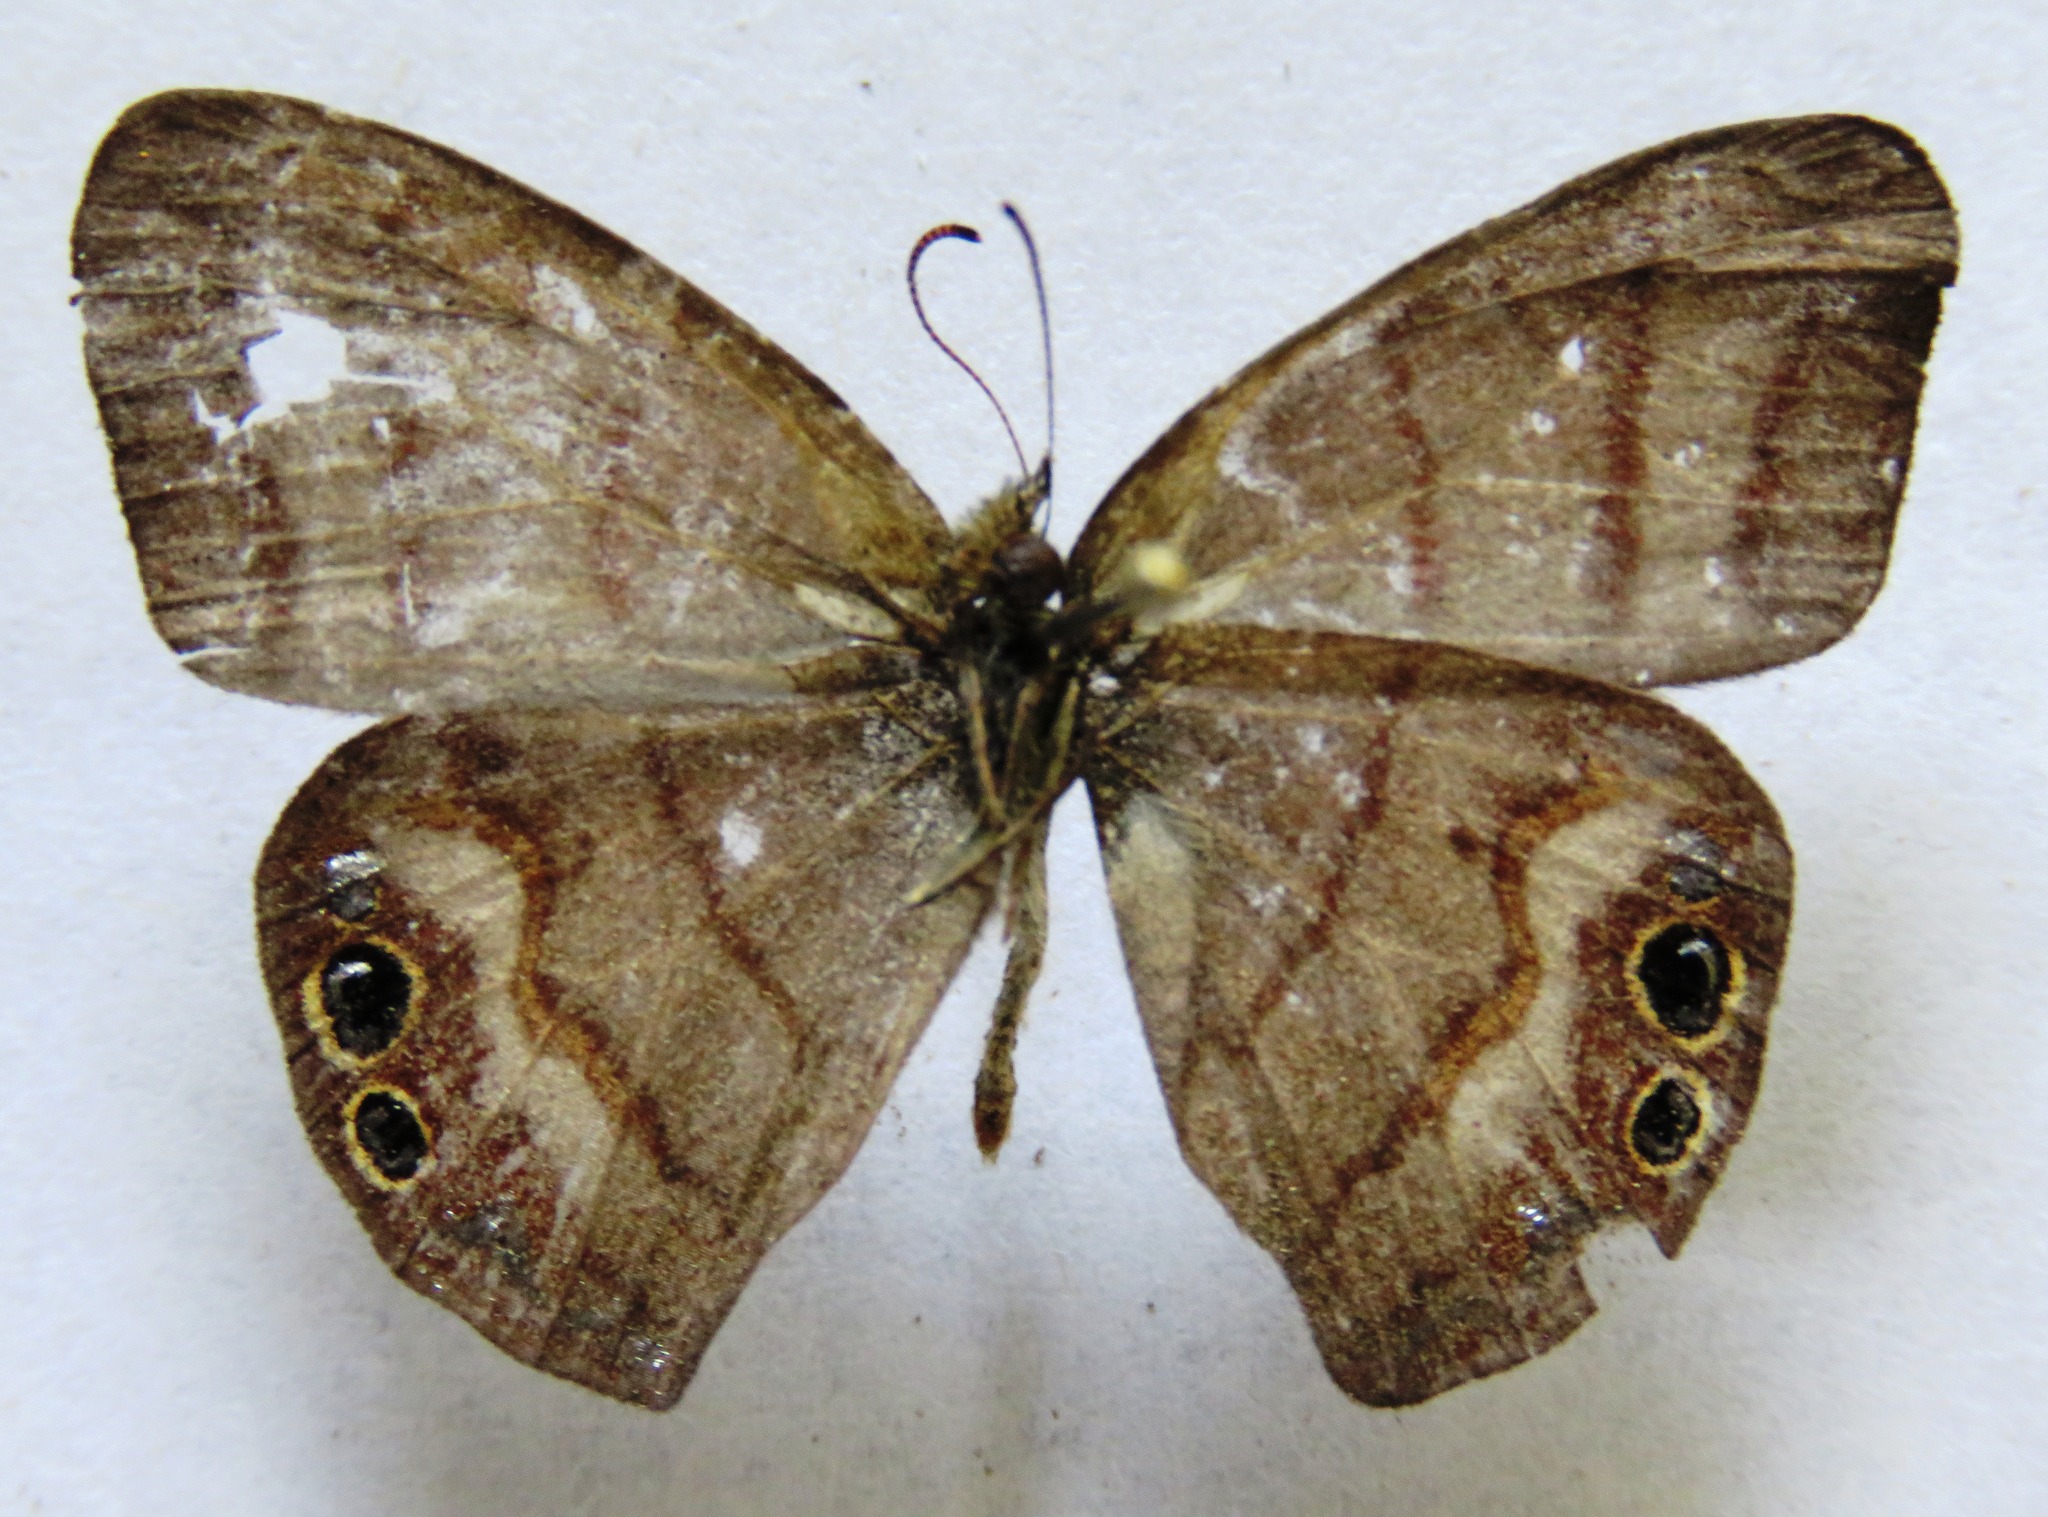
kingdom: Animalia
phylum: Arthropoda
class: Insecta
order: Lepidoptera
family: Nymphalidae
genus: Euptychia
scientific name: Euptychia
